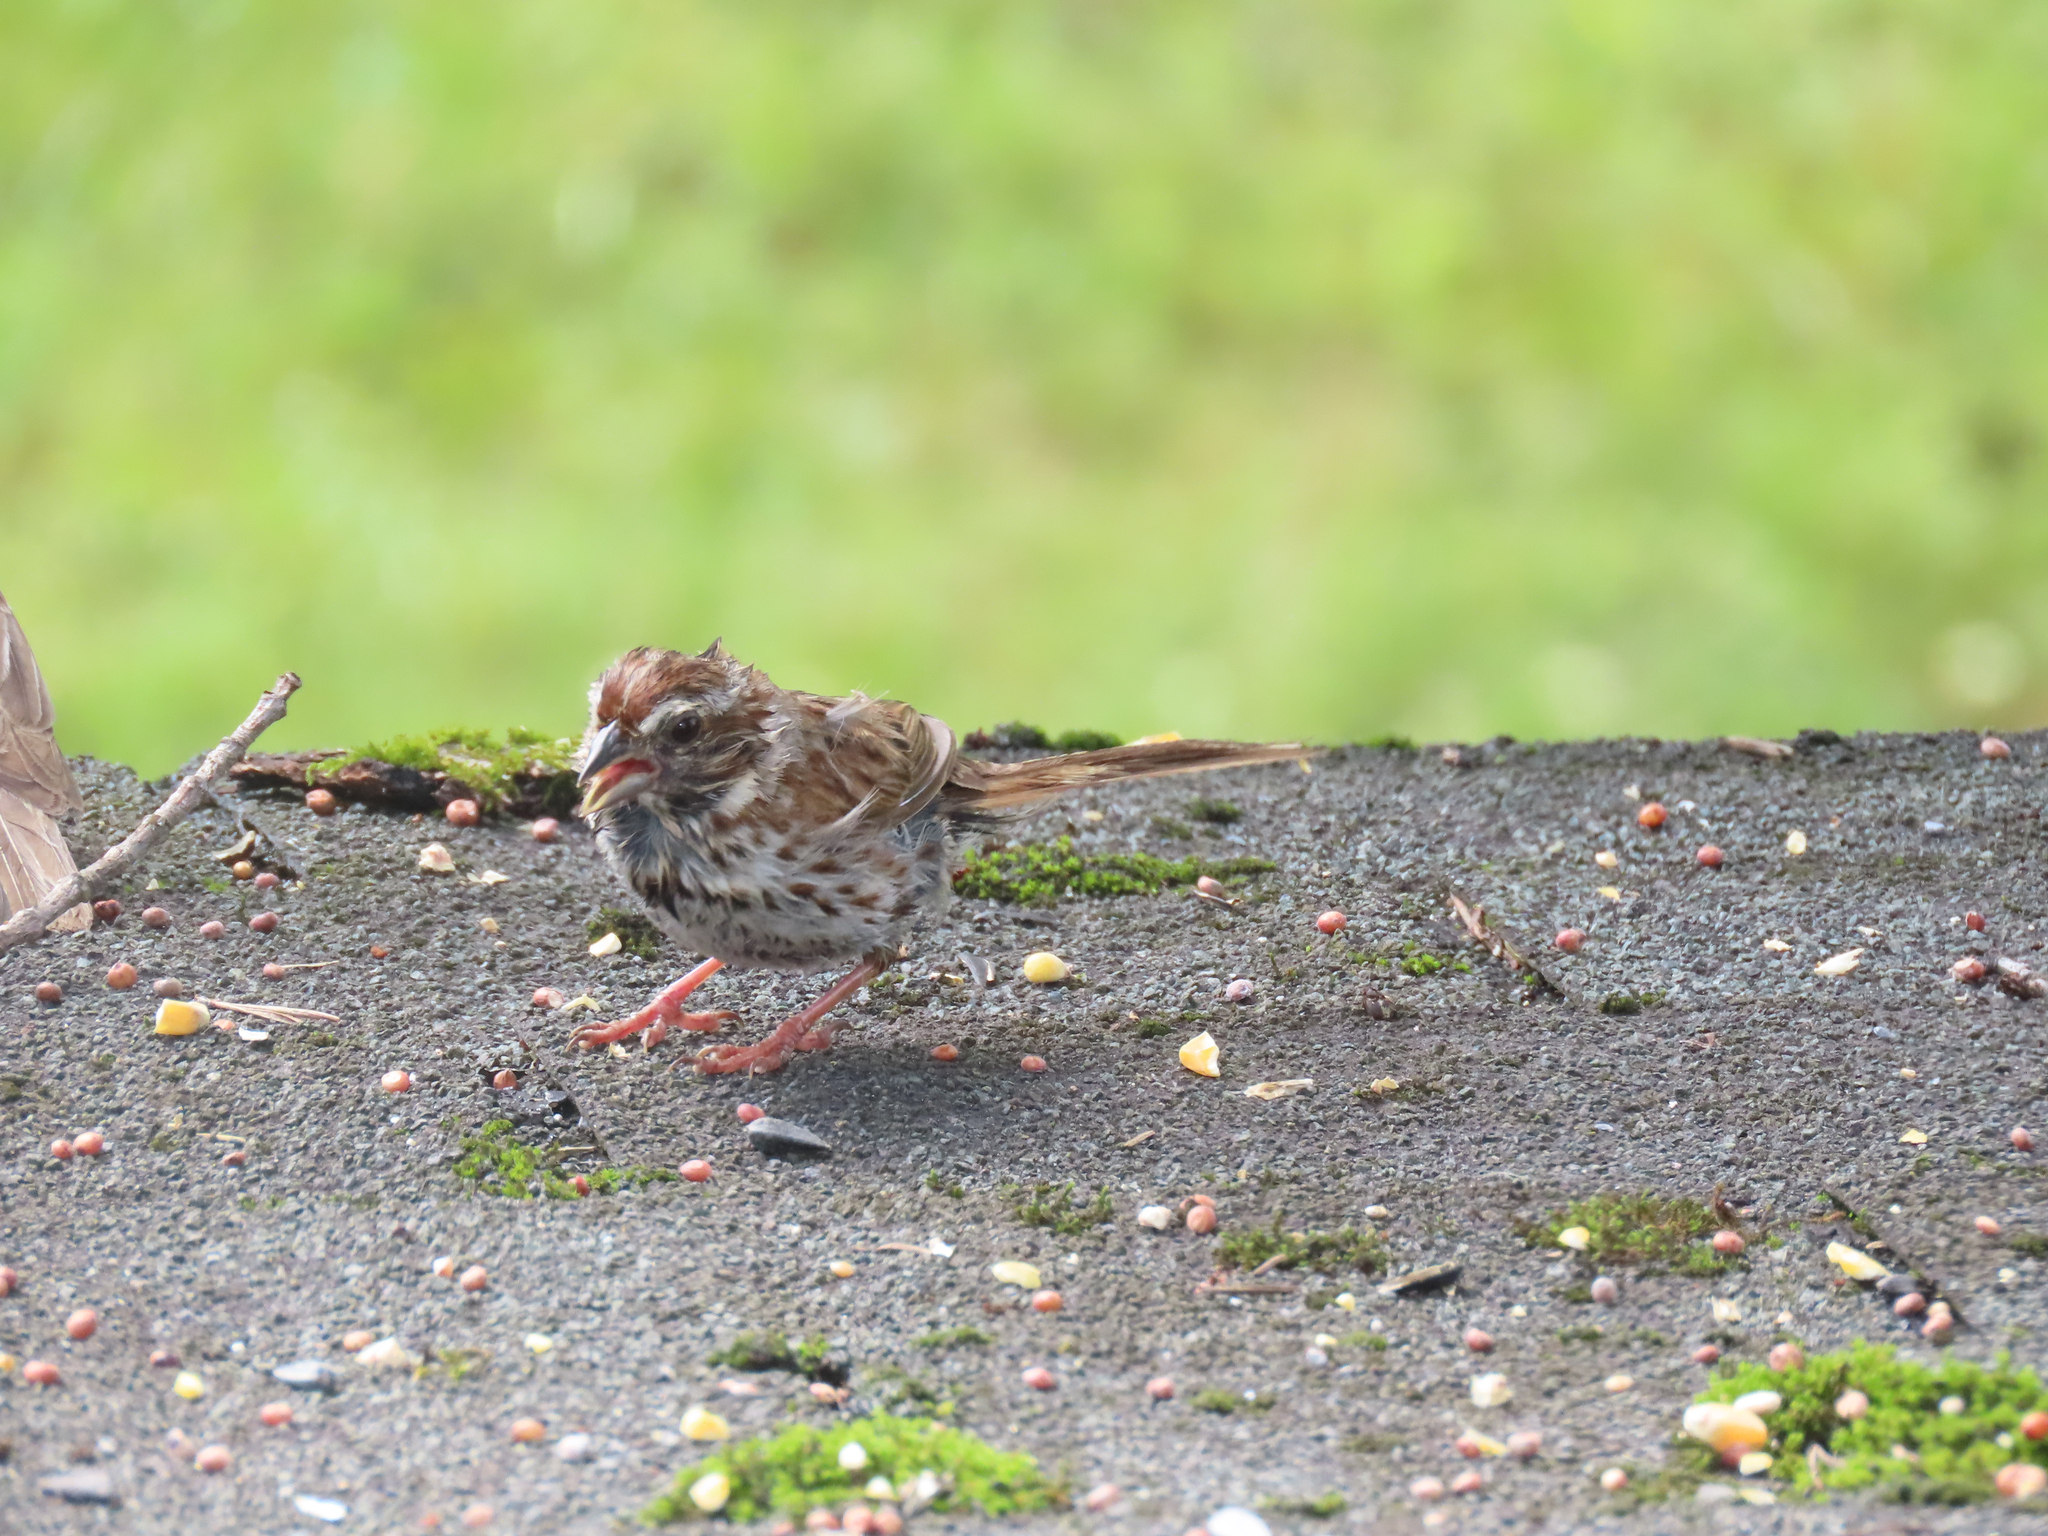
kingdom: Animalia
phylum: Chordata
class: Aves
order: Passeriformes
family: Passerellidae
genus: Melospiza
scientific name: Melospiza melodia
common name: Song sparrow
